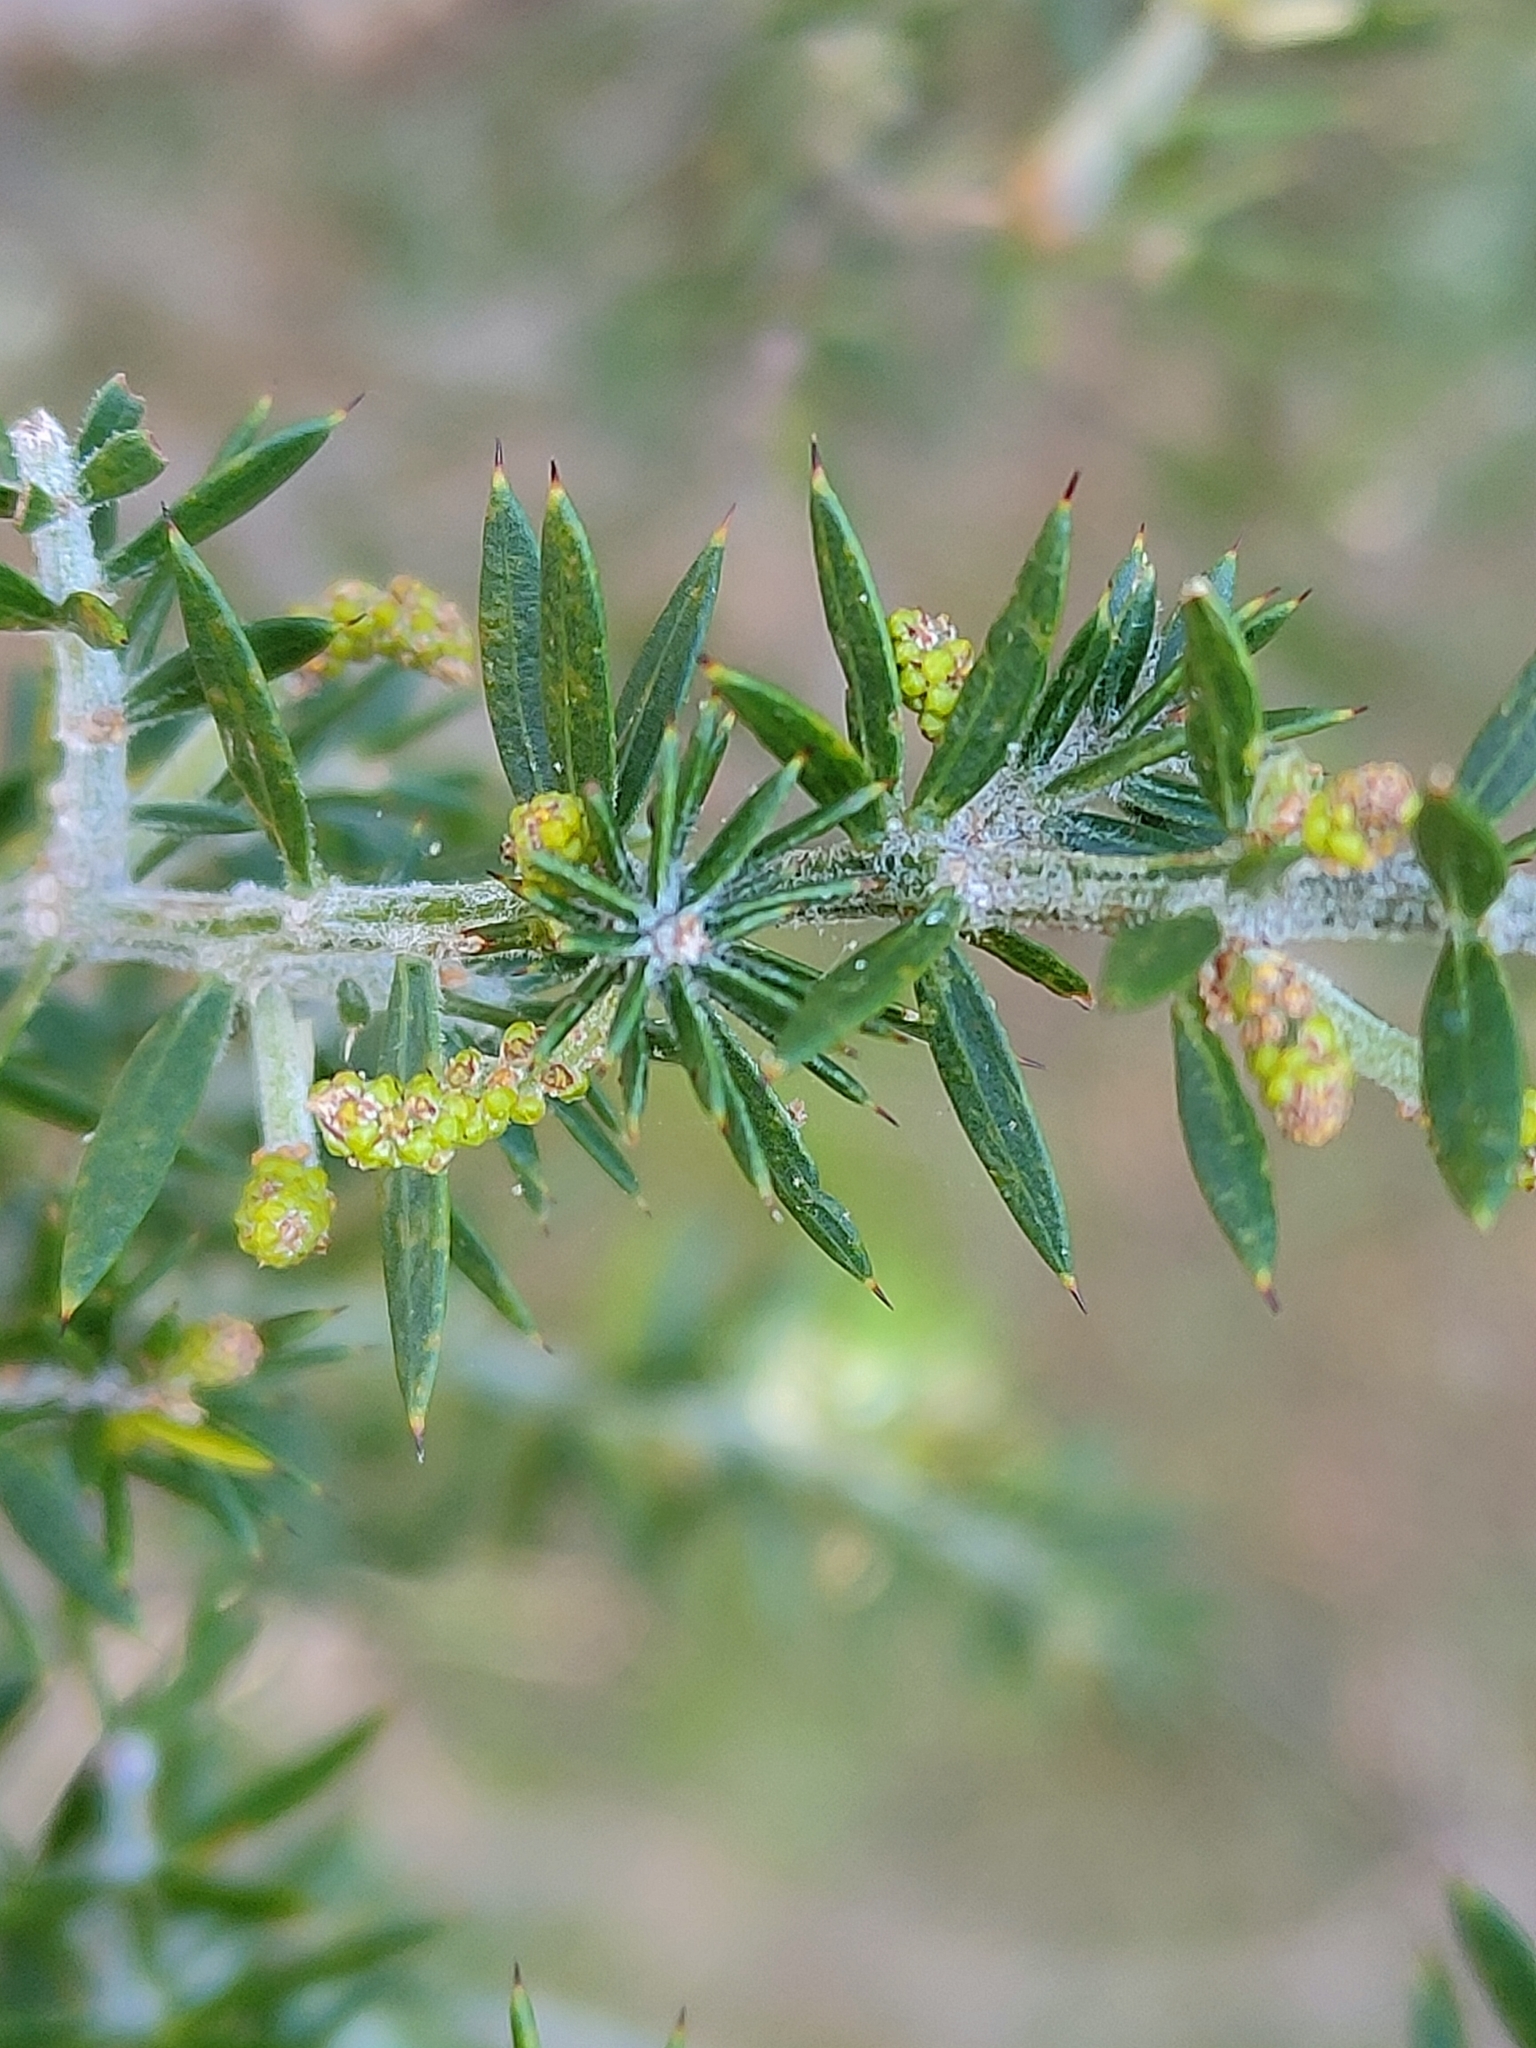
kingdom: Plantae
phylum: Tracheophyta
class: Magnoliopsida
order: Fabales
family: Fabaceae
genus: Acacia
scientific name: Acacia verticillata
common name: Prickly moses
